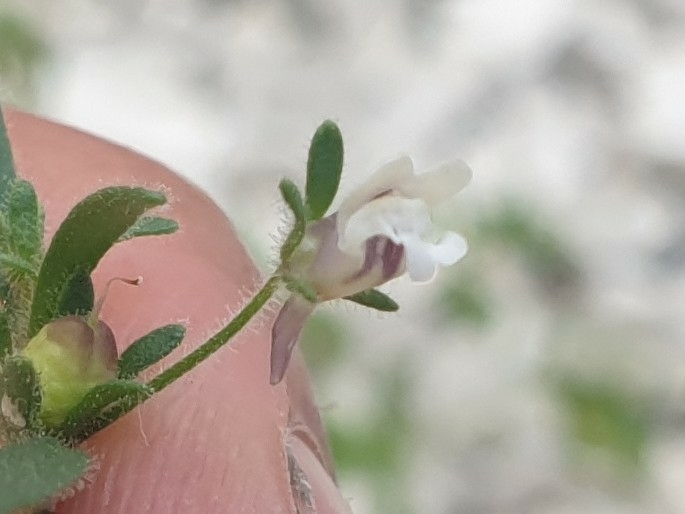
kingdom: Plantae
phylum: Tracheophyta
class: Magnoliopsida
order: Lamiales
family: Plantaginaceae
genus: Chaenorhinum
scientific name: Chaenorhinum minus
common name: Dwarf snapdragon
